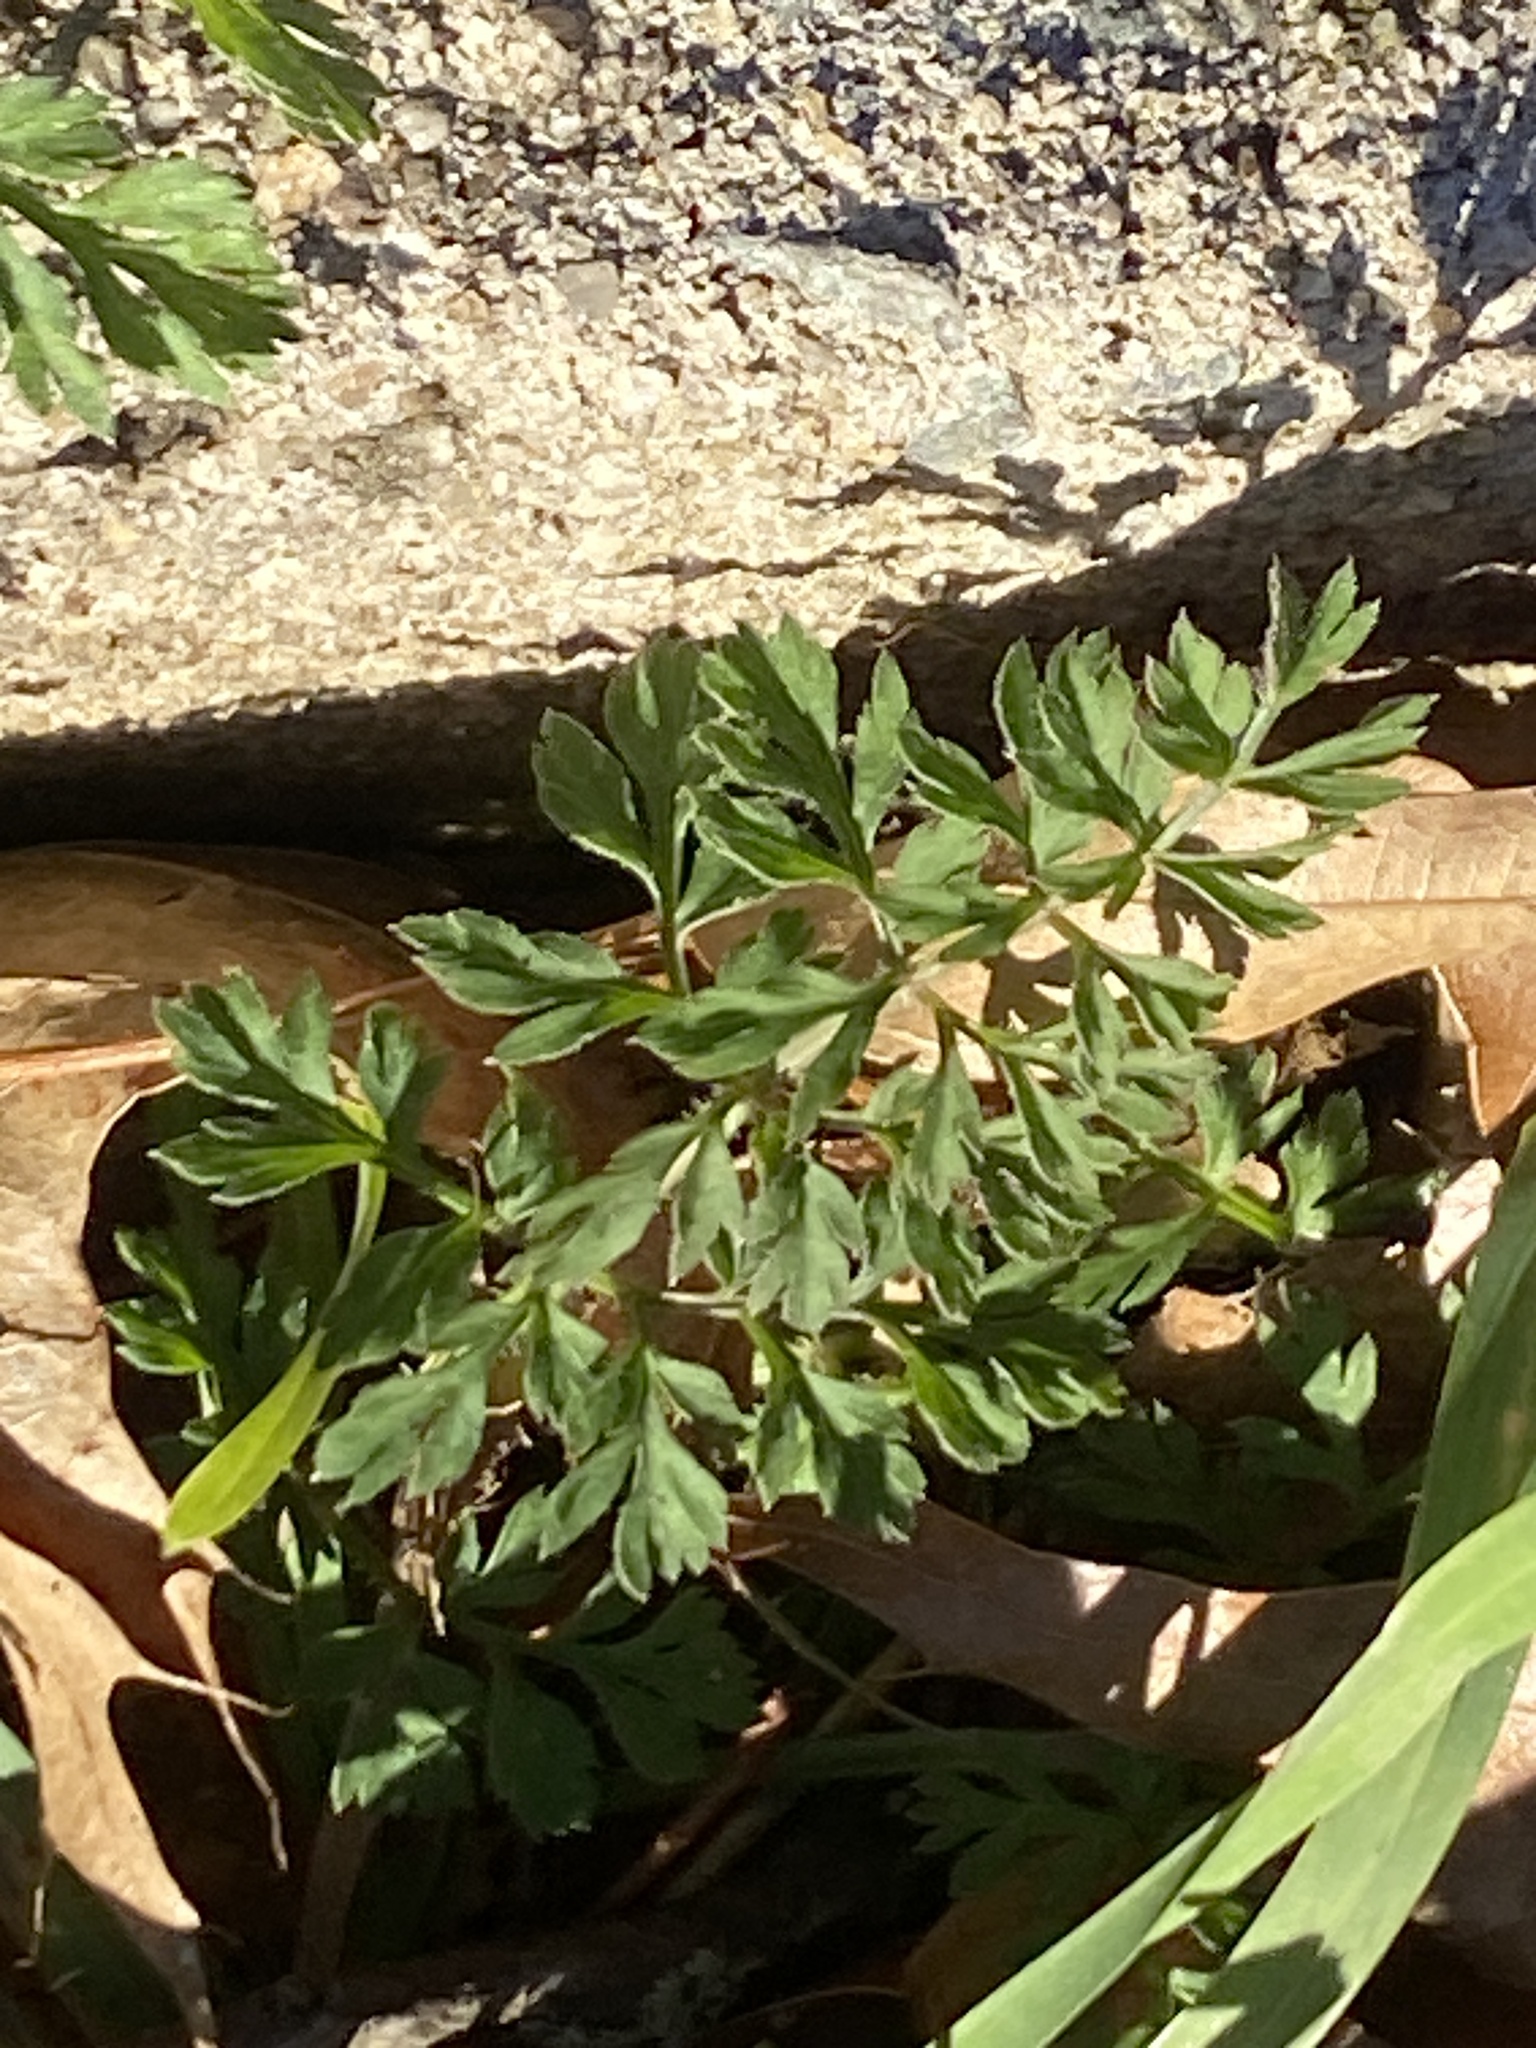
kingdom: Plantae
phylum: Tracheophyta
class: Magnoliopsida
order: Apiales
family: Apiaceae
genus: Daucus
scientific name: Daucus carota
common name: Wild carrot
